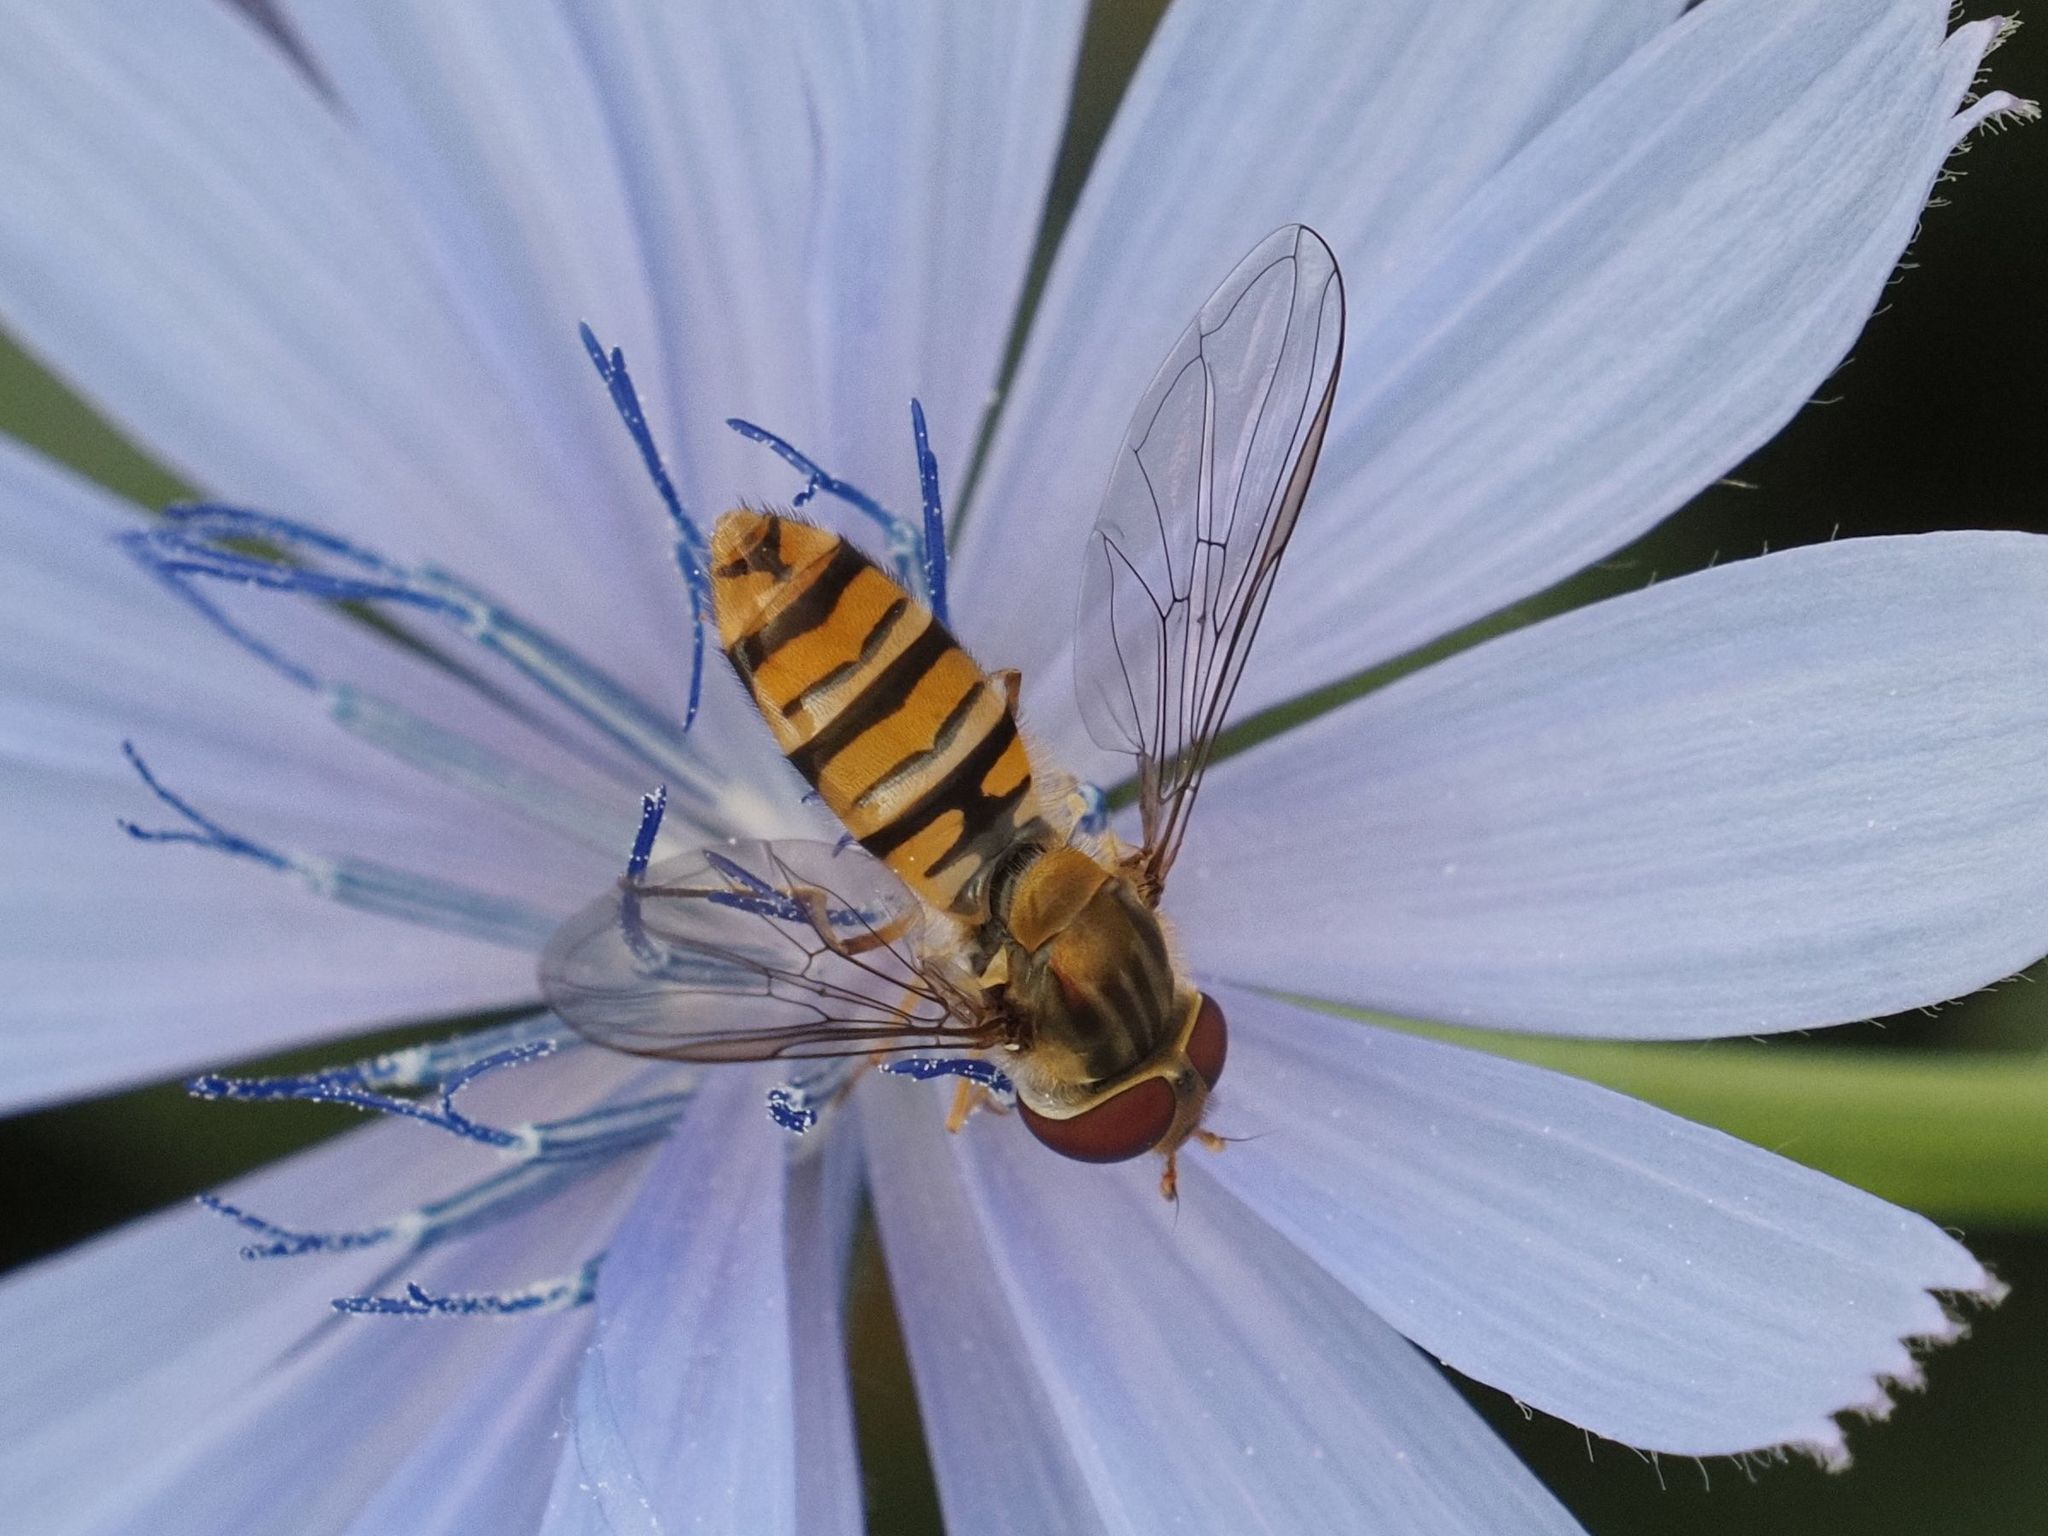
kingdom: Animalia
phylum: Arthropoda
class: Insecta
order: Diptera
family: Syrphidae
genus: Episyrphus
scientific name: Episyrphus balteatus
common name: Marmalade hoverfly
